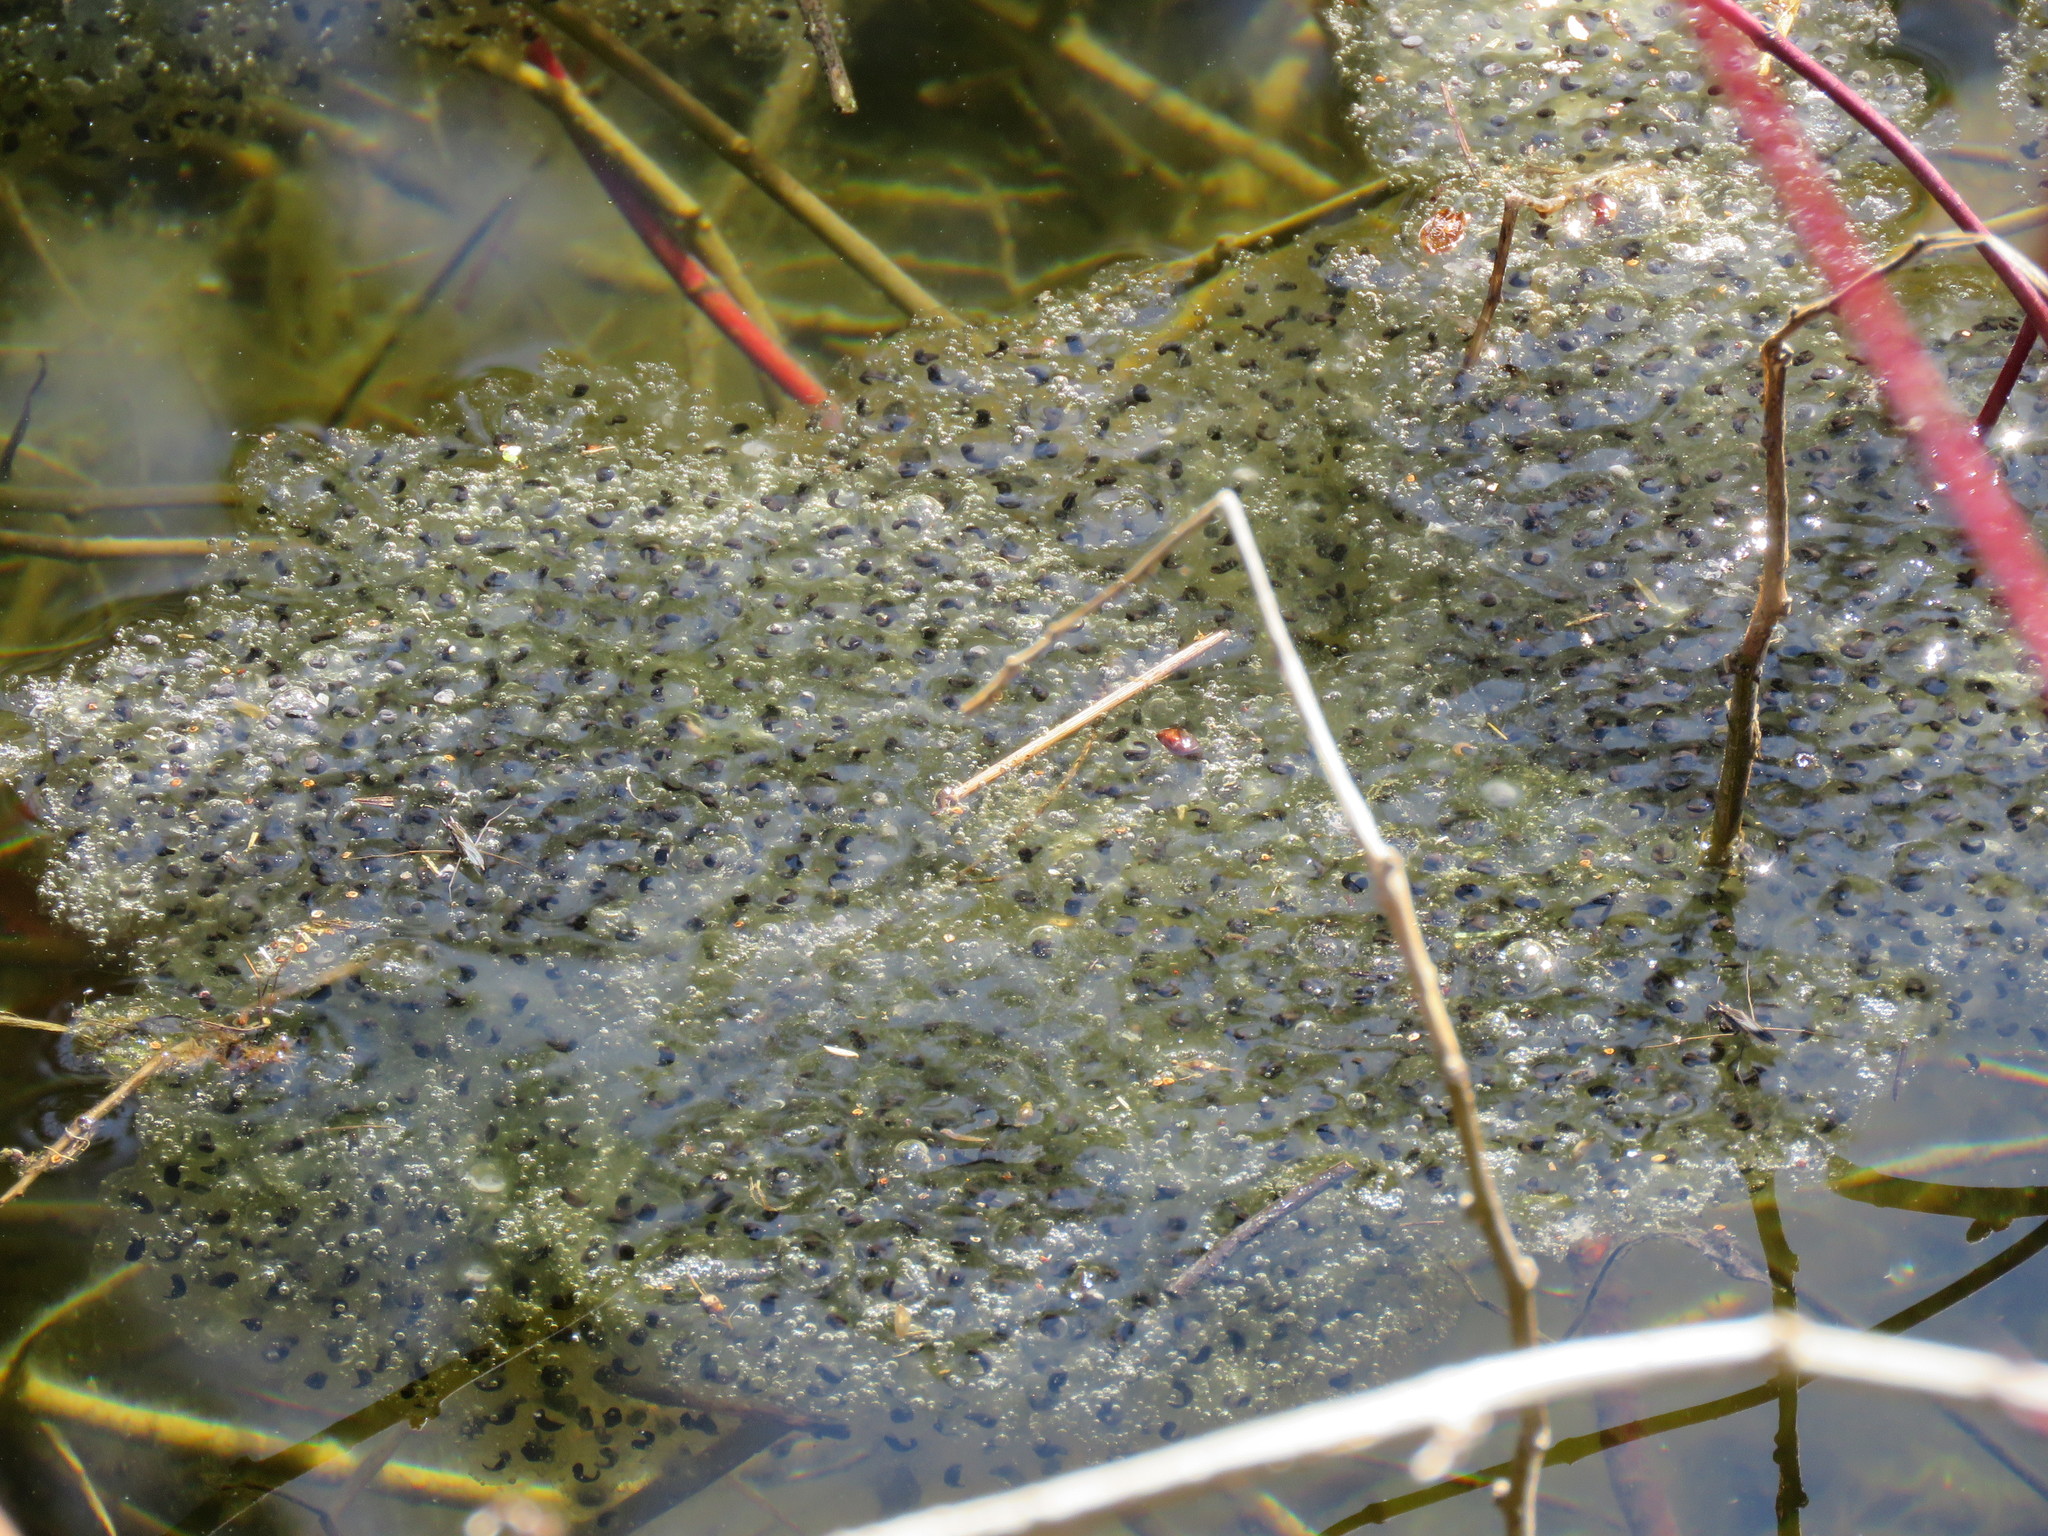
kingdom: Animalia
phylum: Chordata
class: Amphibia
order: Anura
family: Ranidae
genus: Lithobates
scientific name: Lithobates sylvaticus
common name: Wood frog
